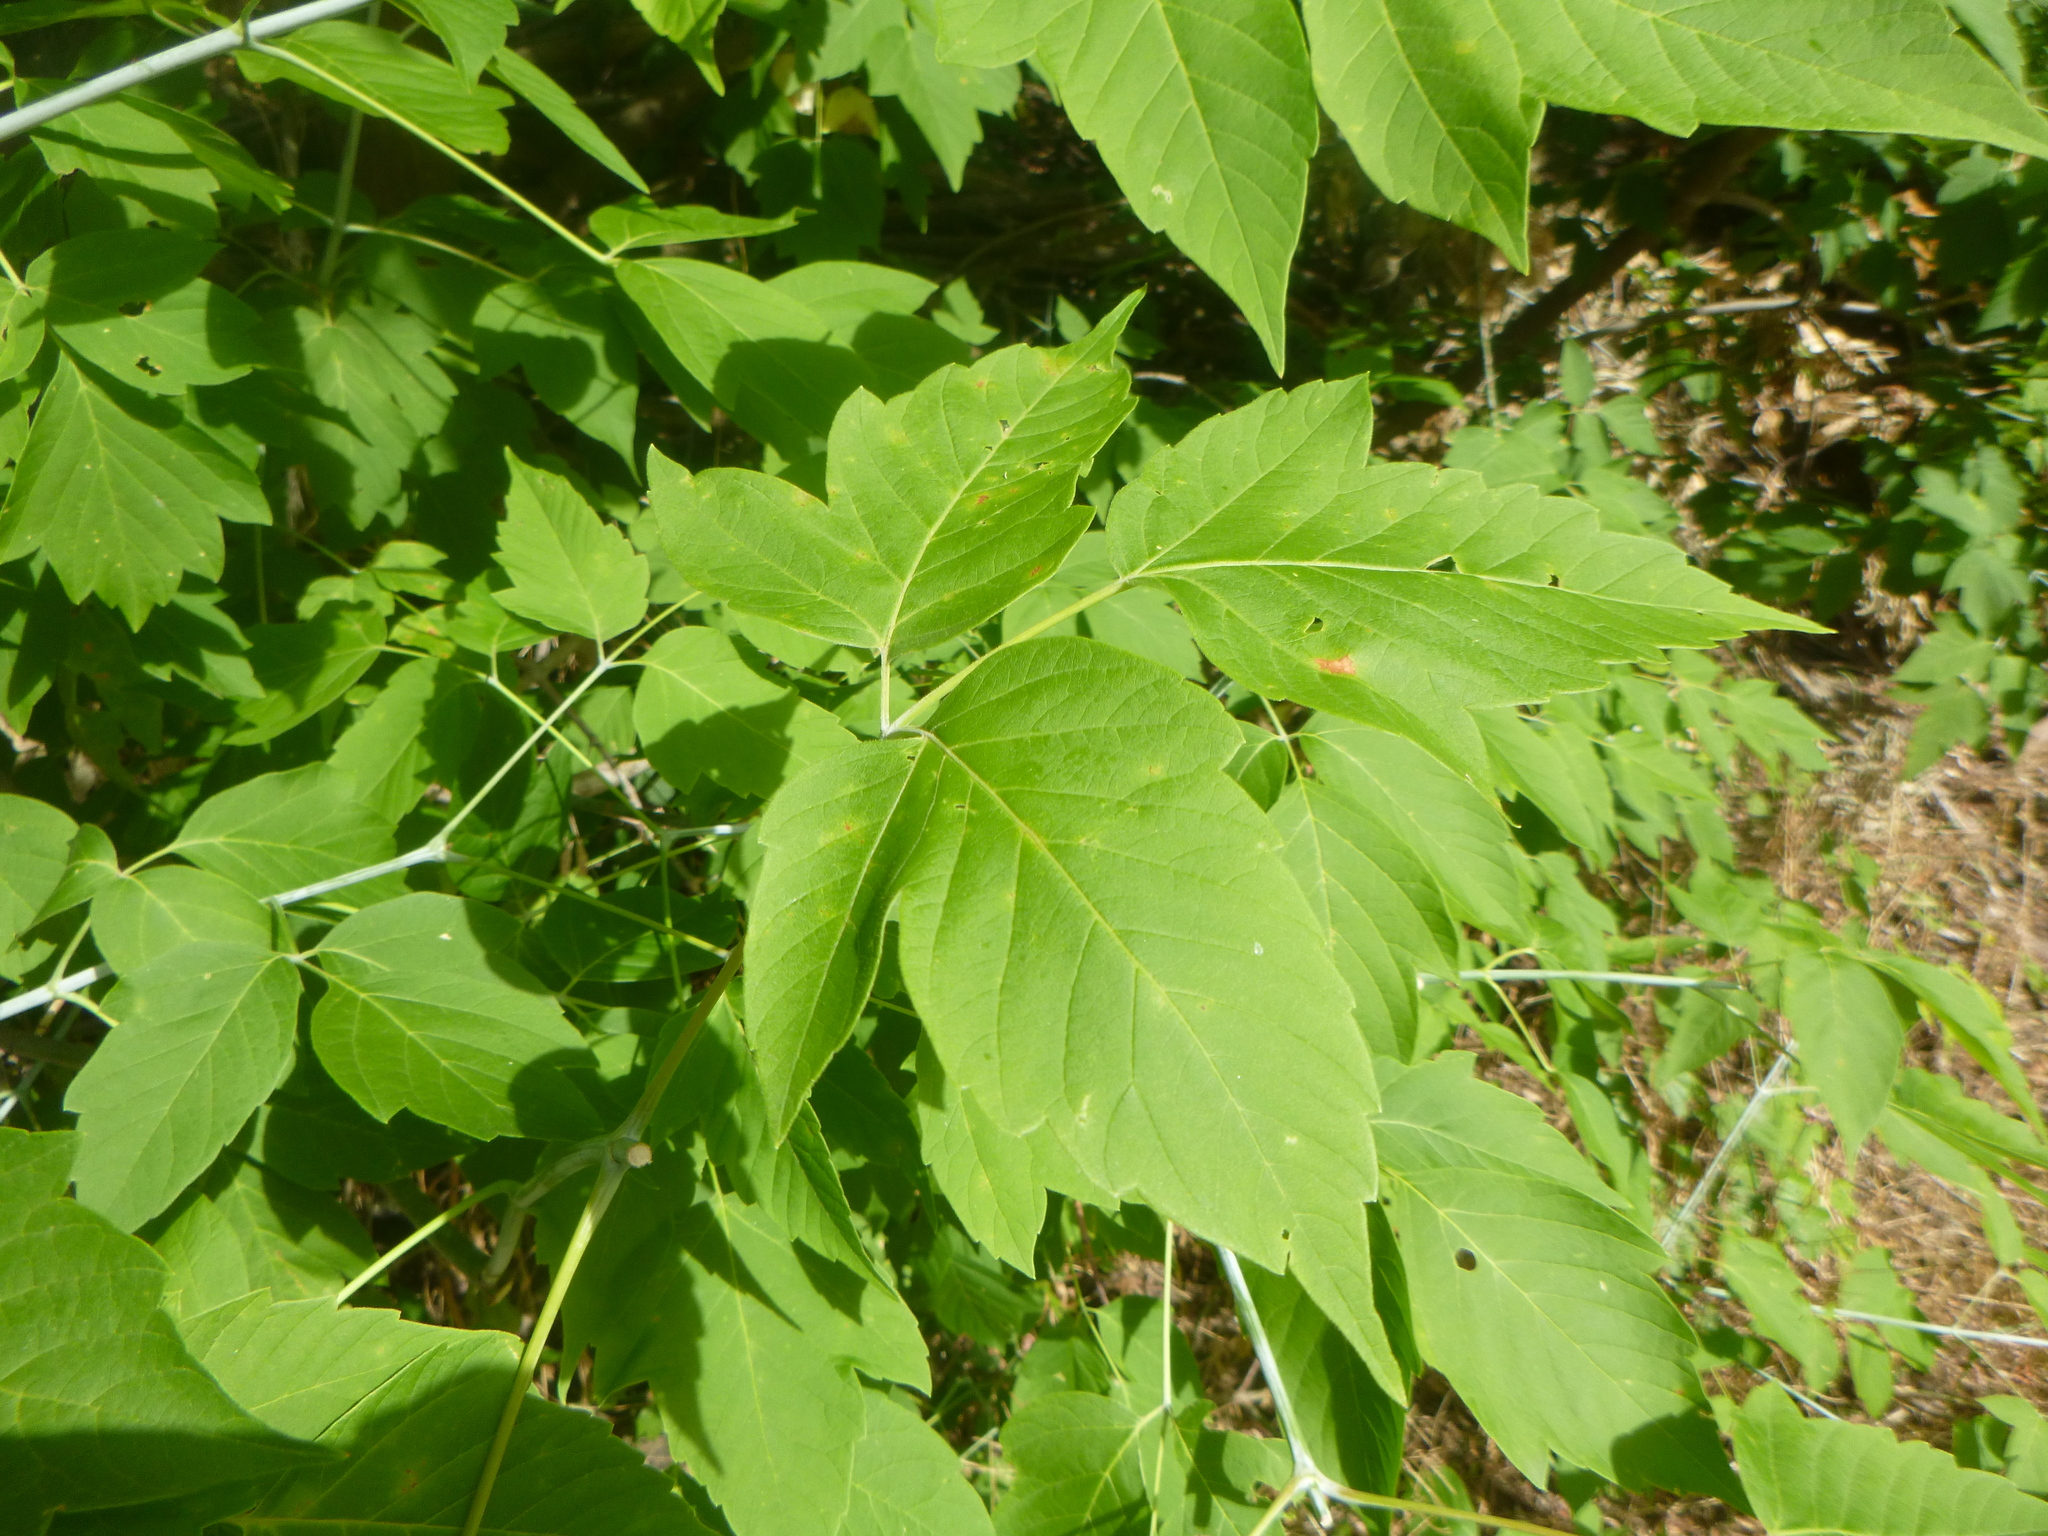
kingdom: Plantae
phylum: Tracheophyta
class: Magnoliopsida
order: Sapindales
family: Sapindaceae
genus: Acer
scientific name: Acer negundo
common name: Ashleaf maple
